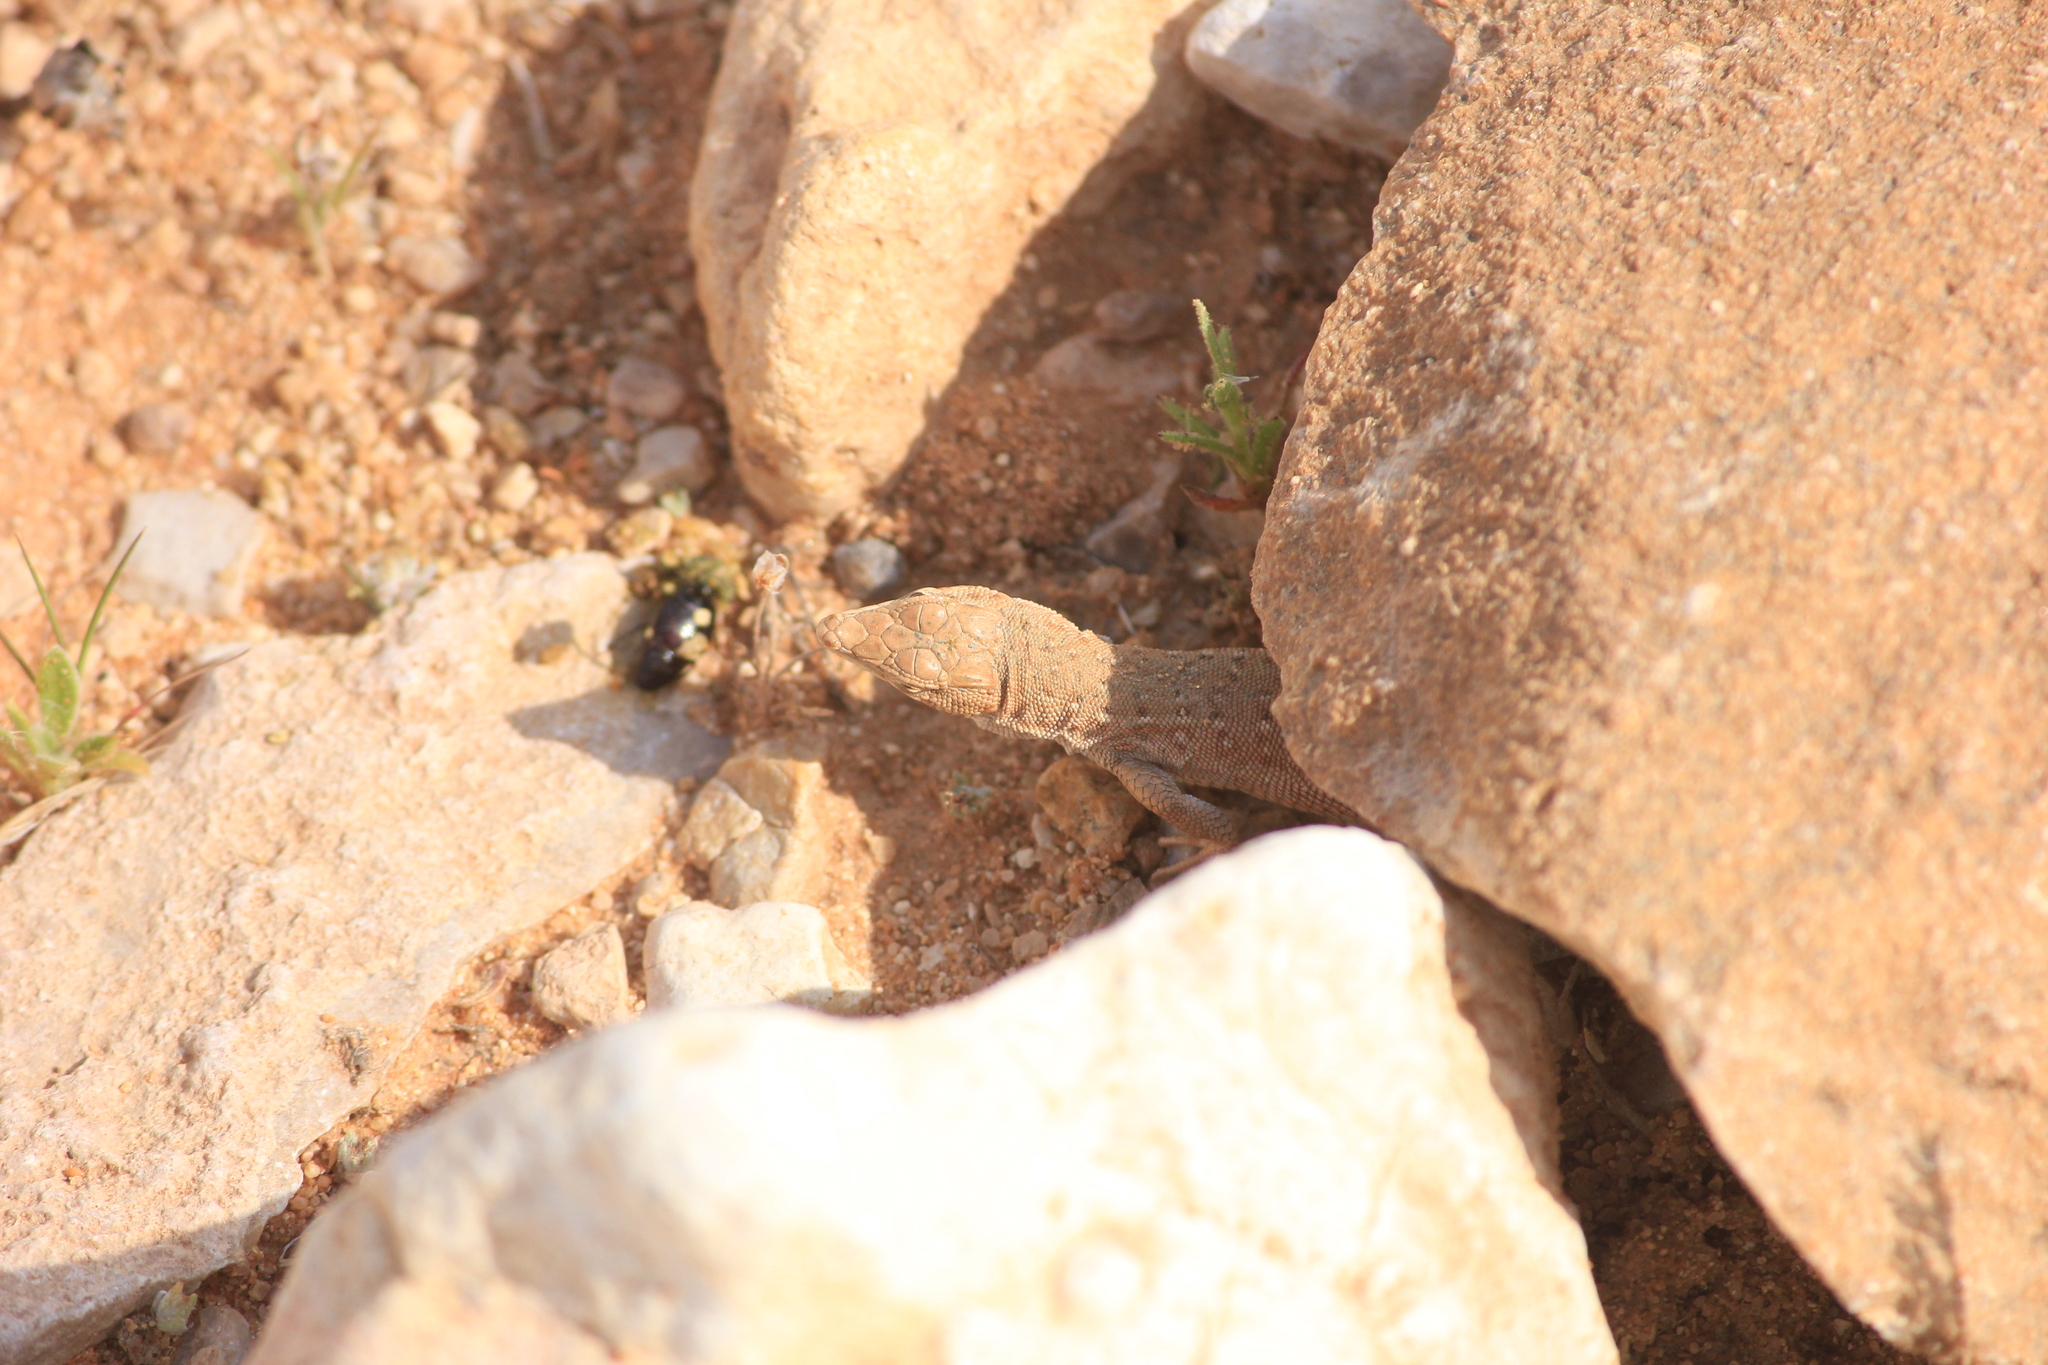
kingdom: Animalia
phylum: Chordata
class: Squamata
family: Lacertidae
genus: Mesalina
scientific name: Mesalina guttulata
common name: Desert lacerta
